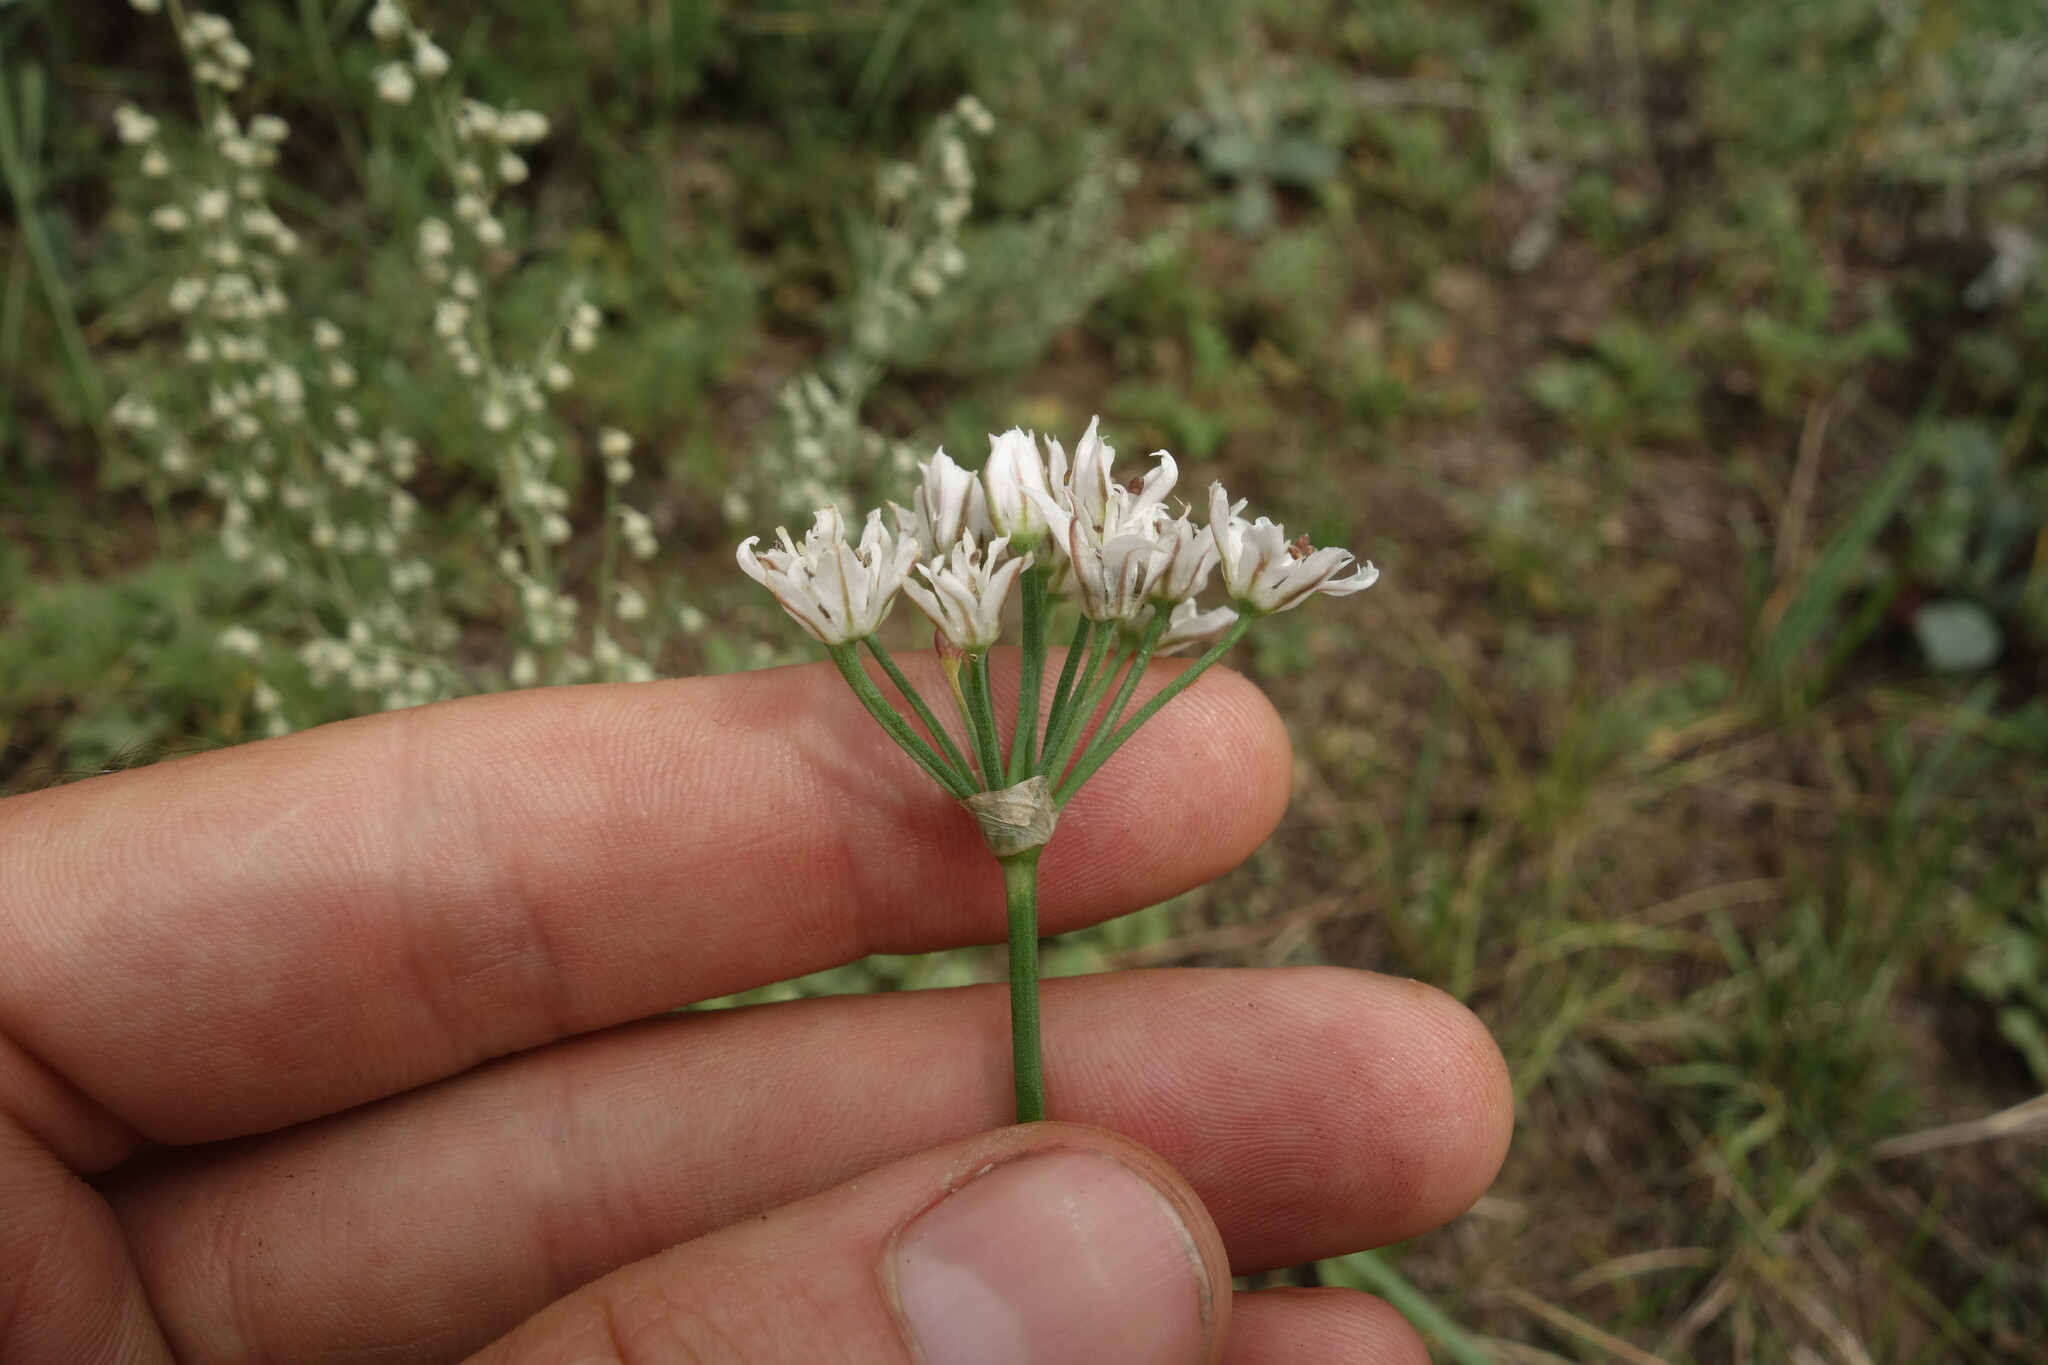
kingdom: Plantae
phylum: Tracheophyta
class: Liliopsida
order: Asparagales
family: Amaryllidaceae
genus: Allium
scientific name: Allium ramosum
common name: Fragrant garlic
